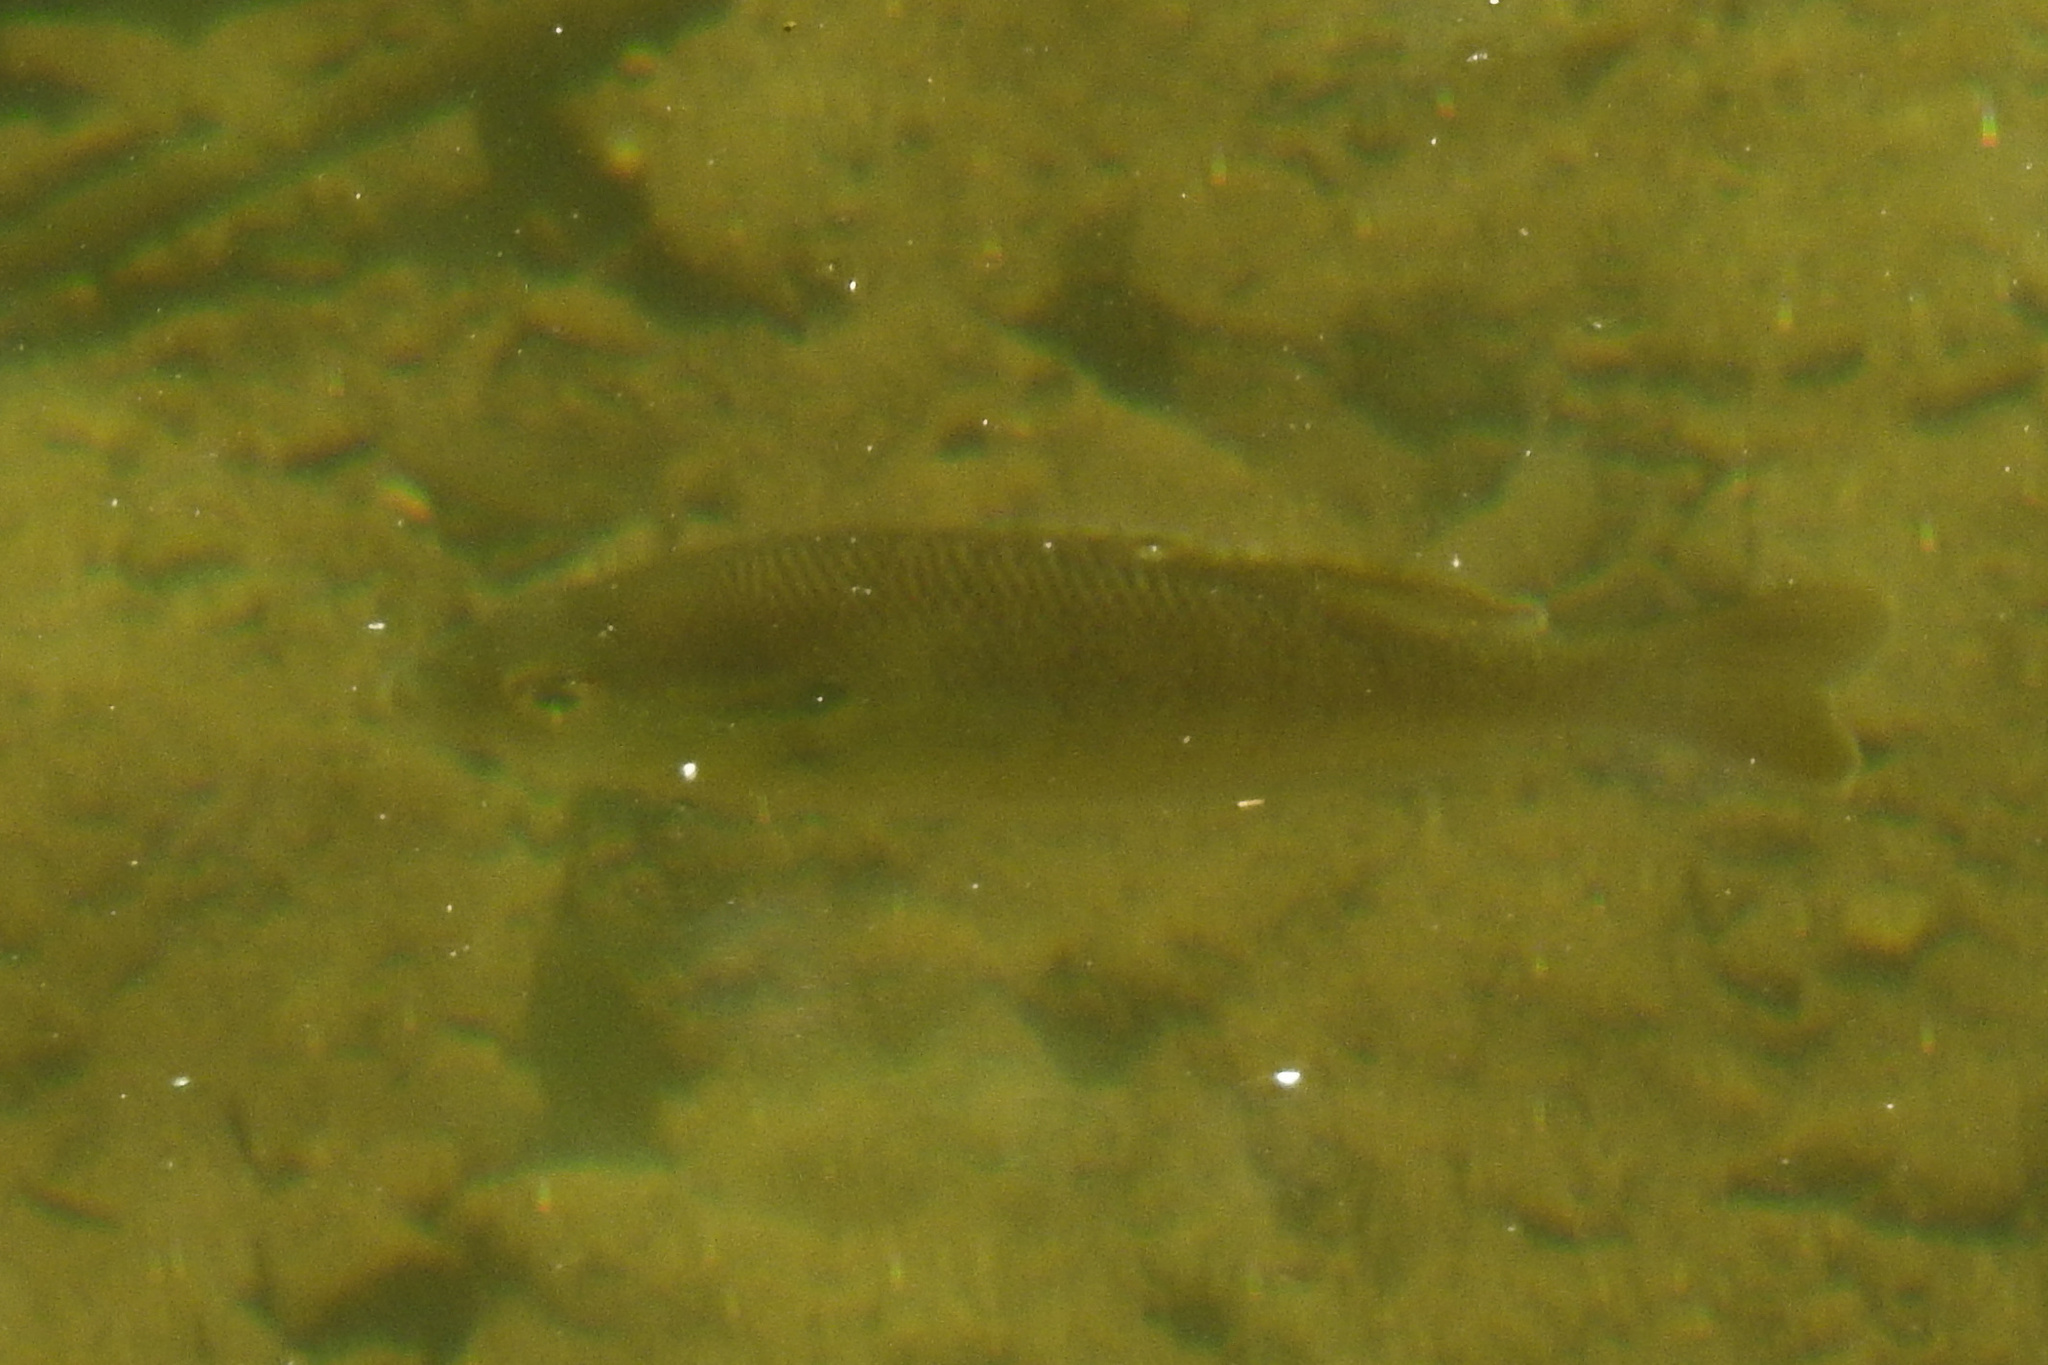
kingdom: Animalia
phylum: Chordata
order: Perciformes
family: Centrarchidae
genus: Lepomis
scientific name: Lepomis auritus
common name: Redbreast sunfish
